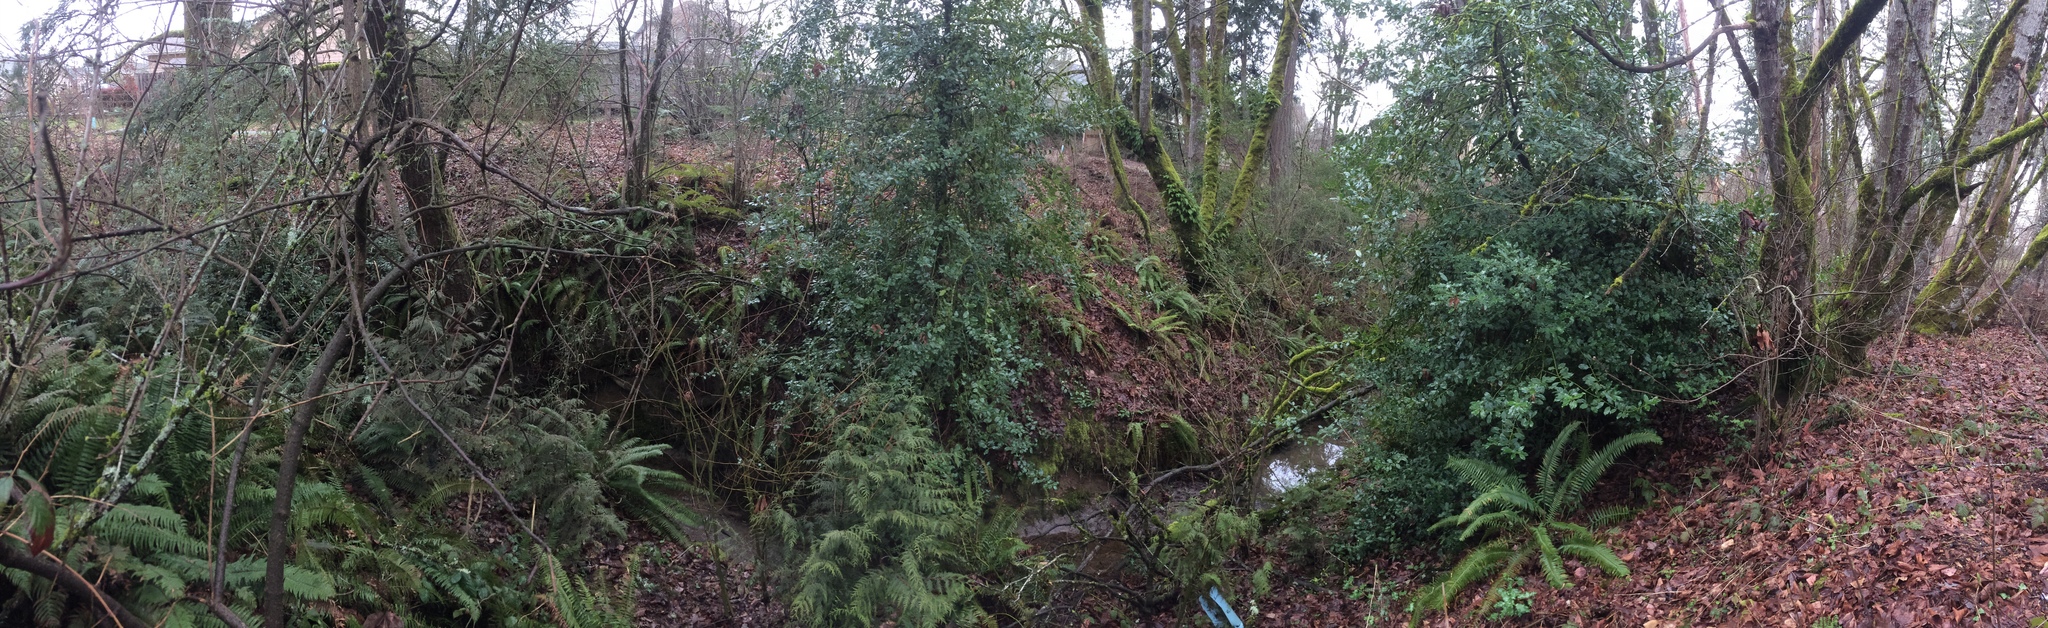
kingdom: Plantae
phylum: Tracheophyta
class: Magnoliopsida
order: Aquifoliales
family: Aquifoliaceae
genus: Ilex
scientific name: Ilex aquifolium
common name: English holly
